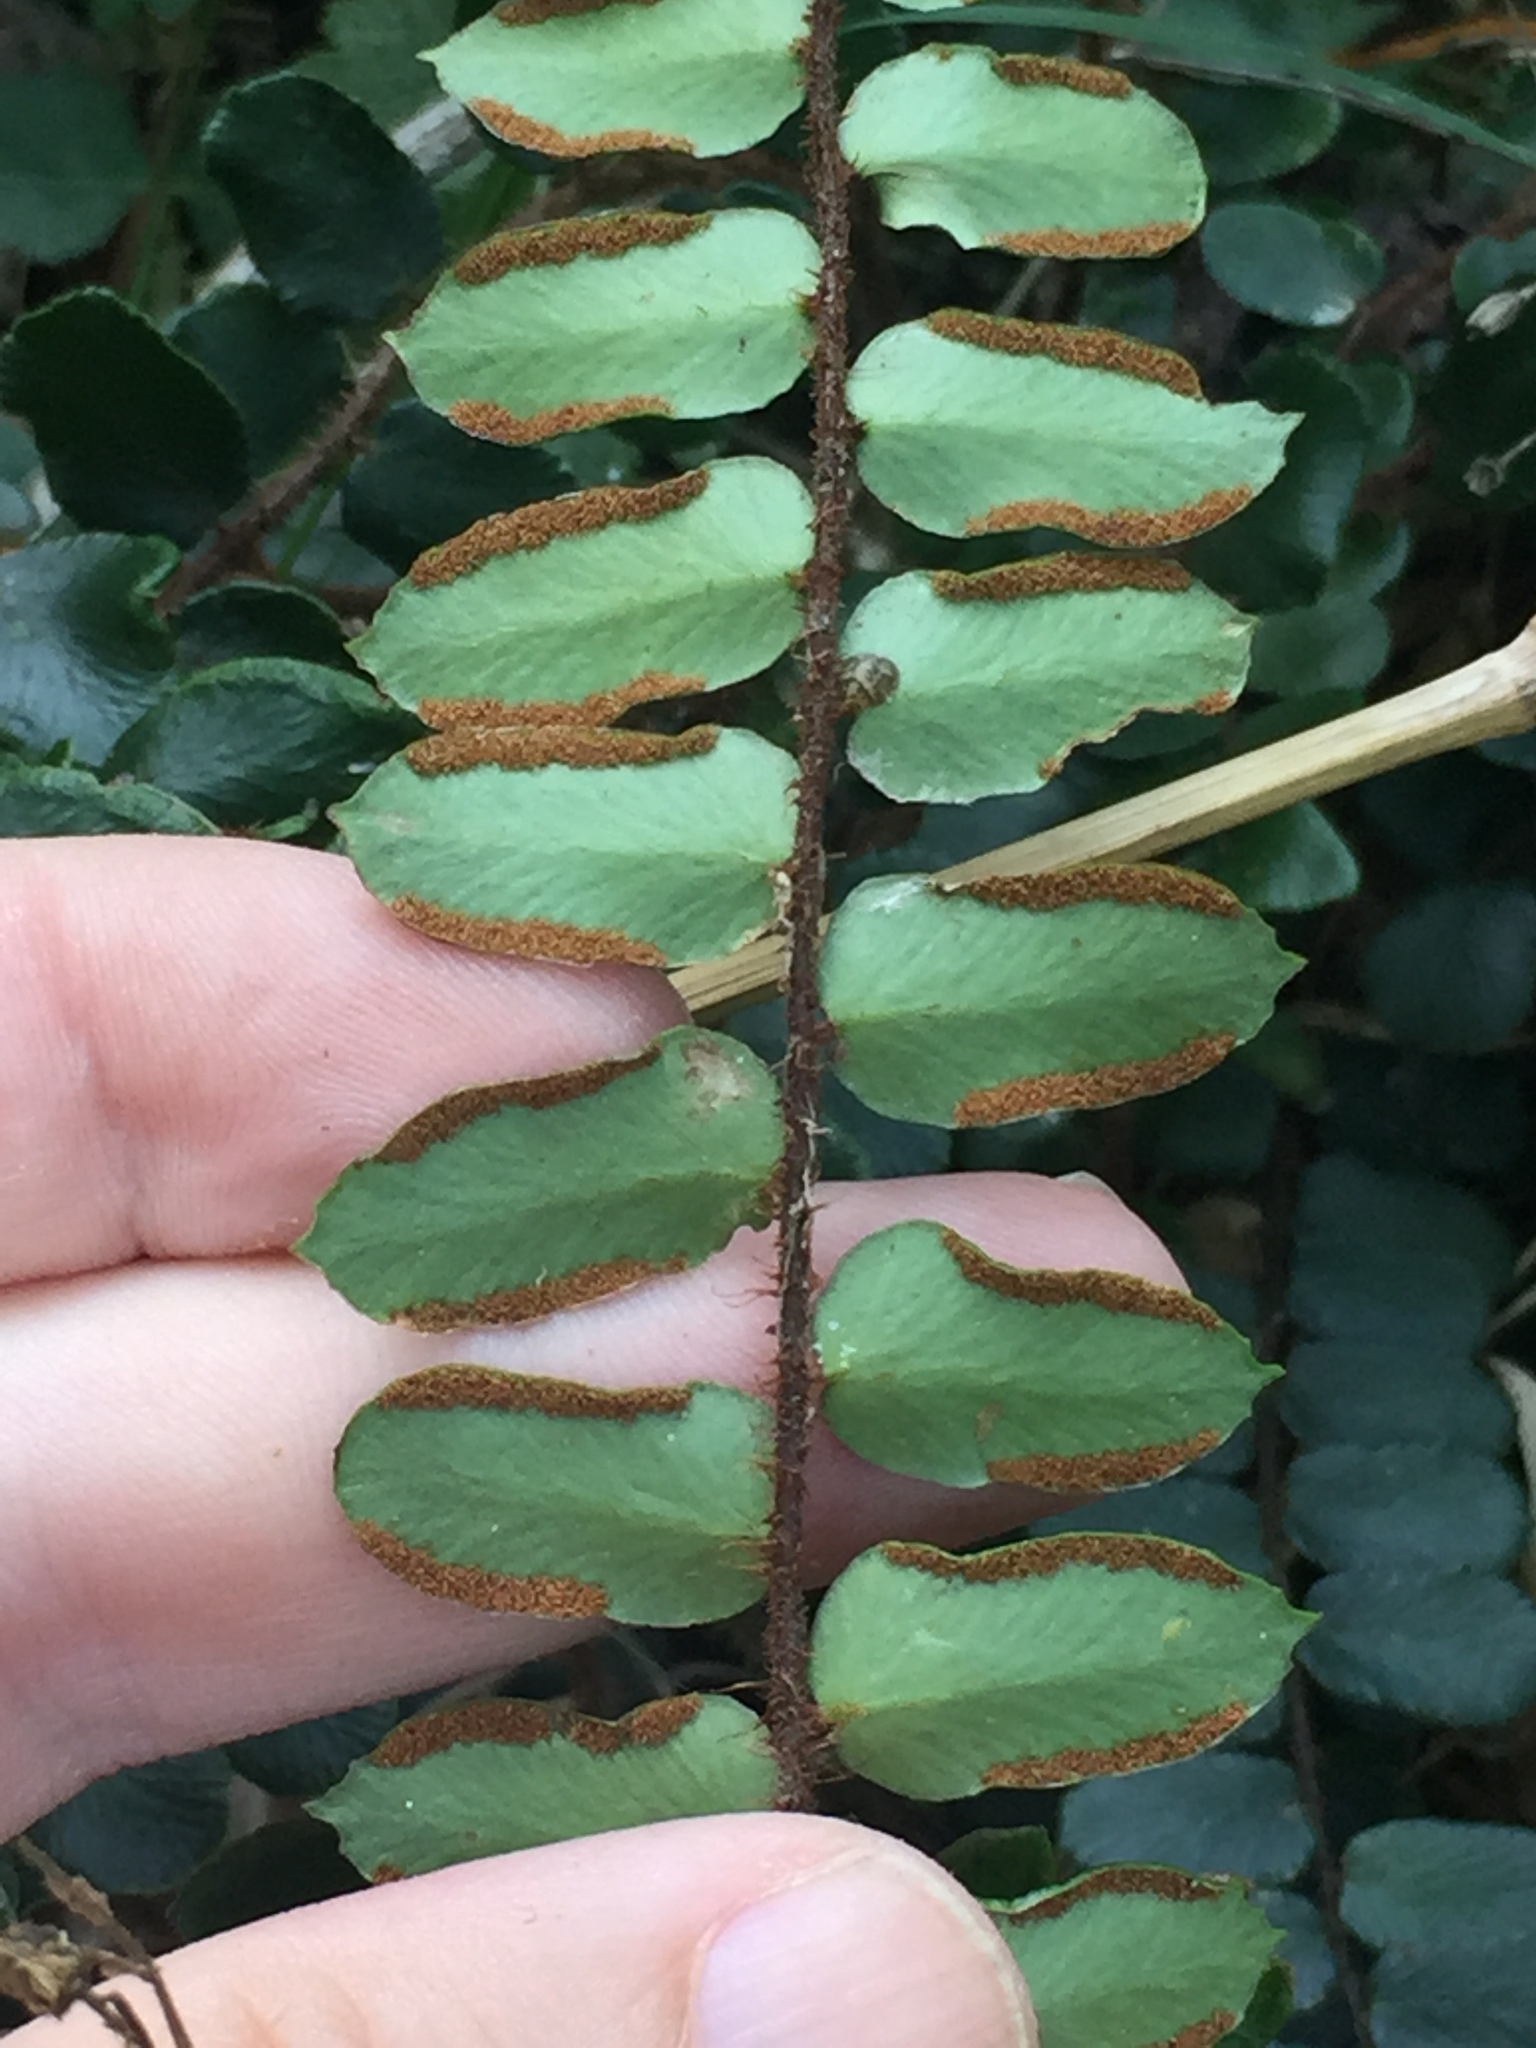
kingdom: Plantae
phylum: Tracheophyta
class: Polypodiopsida
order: Polypodiales
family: Pteridaceae
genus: Pellaea
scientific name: Pellaea rotundifolia
